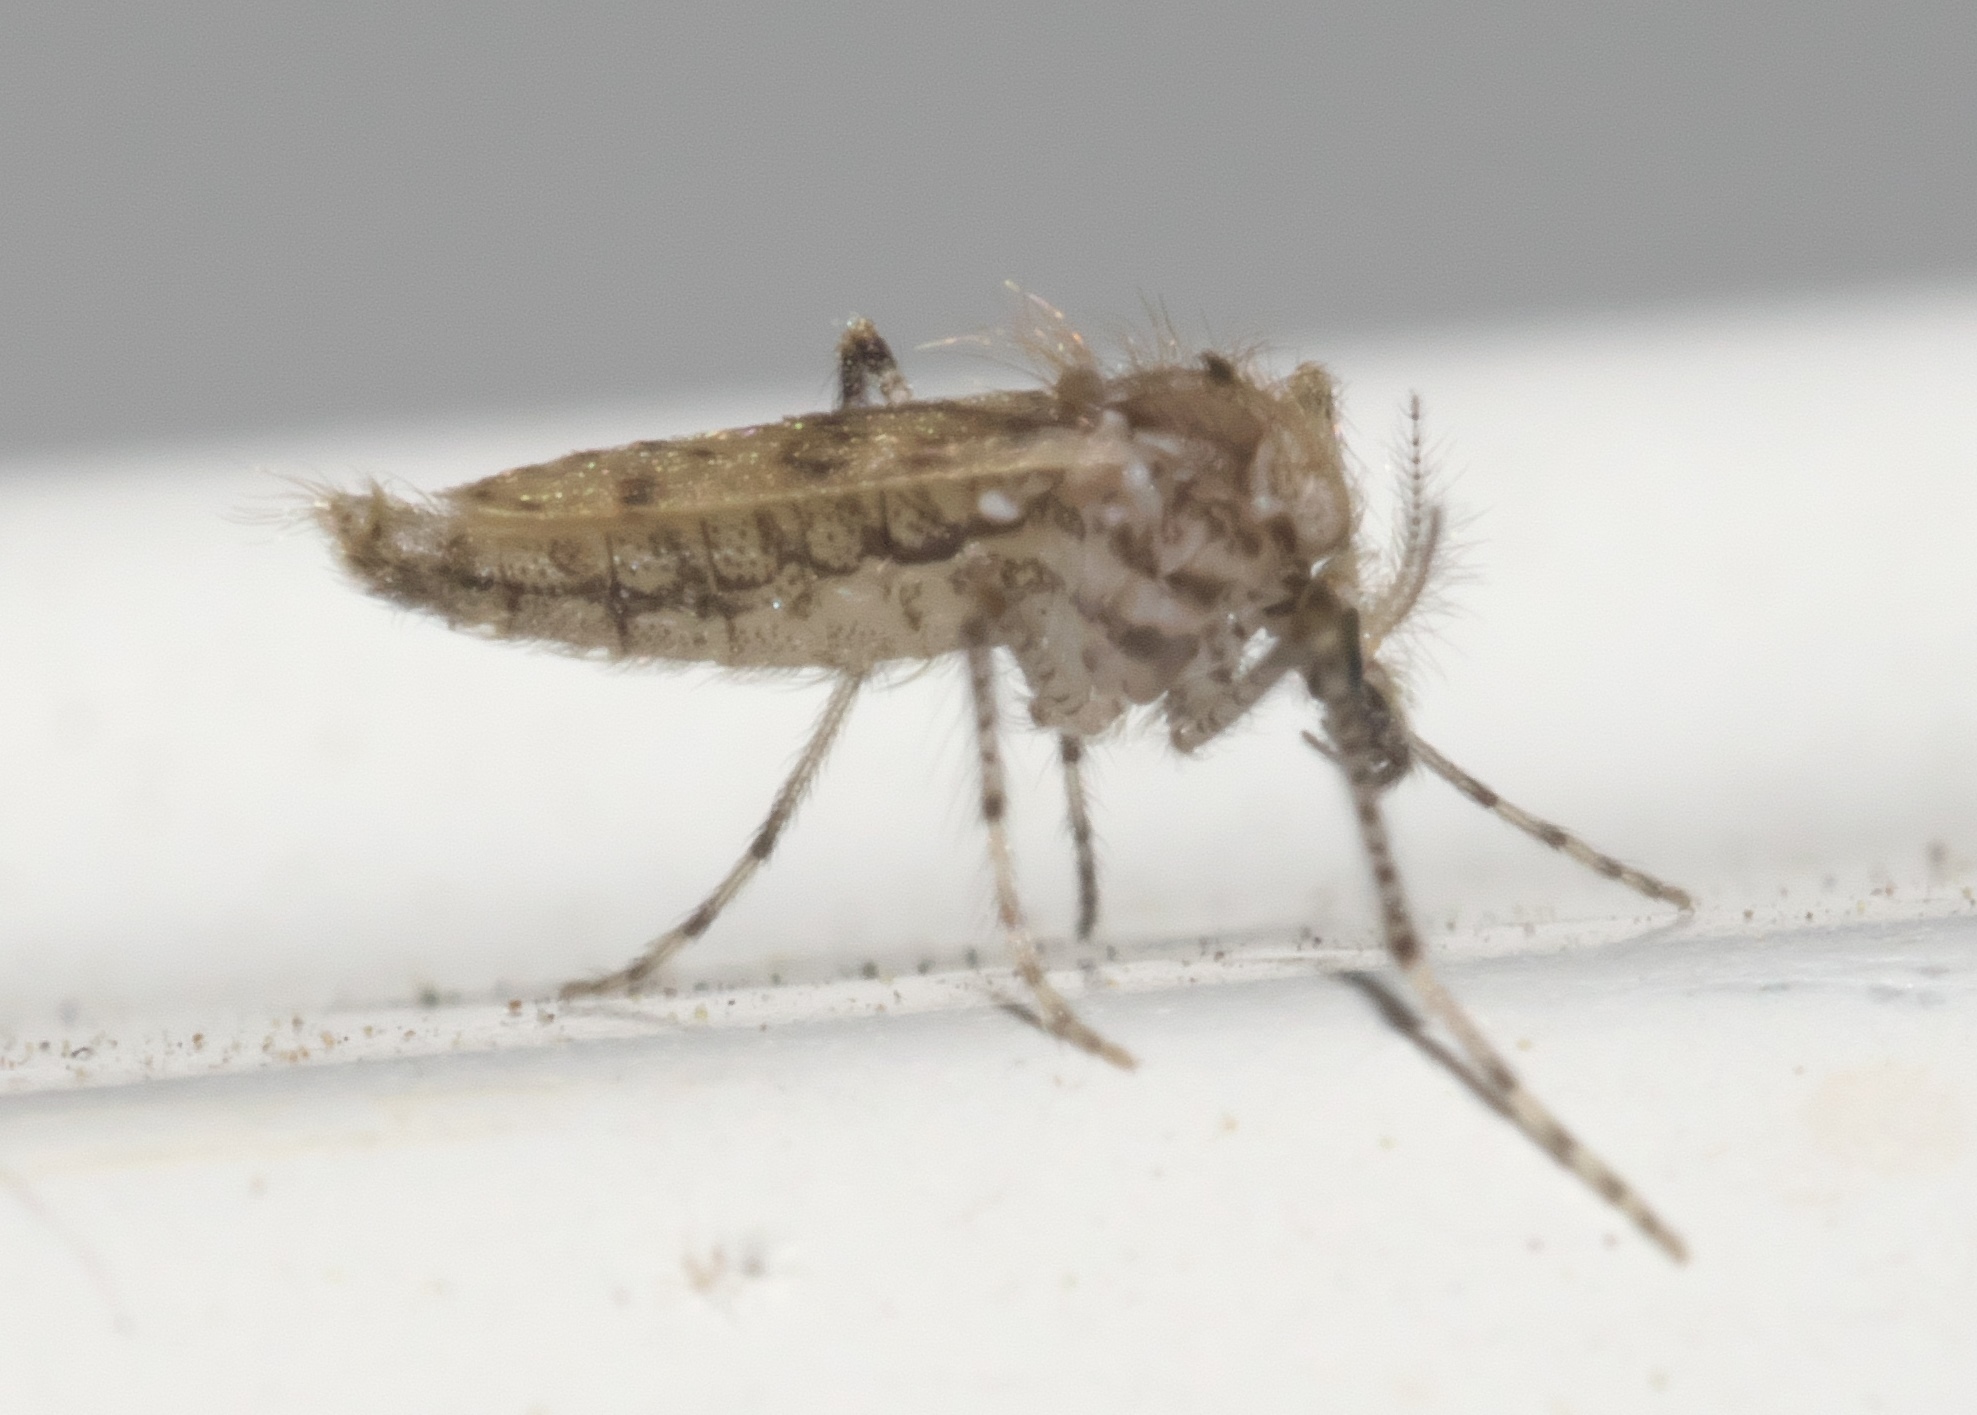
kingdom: Animalia
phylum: Arthropoda
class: Insecta
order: Diptera
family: Chaoboridae
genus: Chaoborus
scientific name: Chaoborus punctipennis
